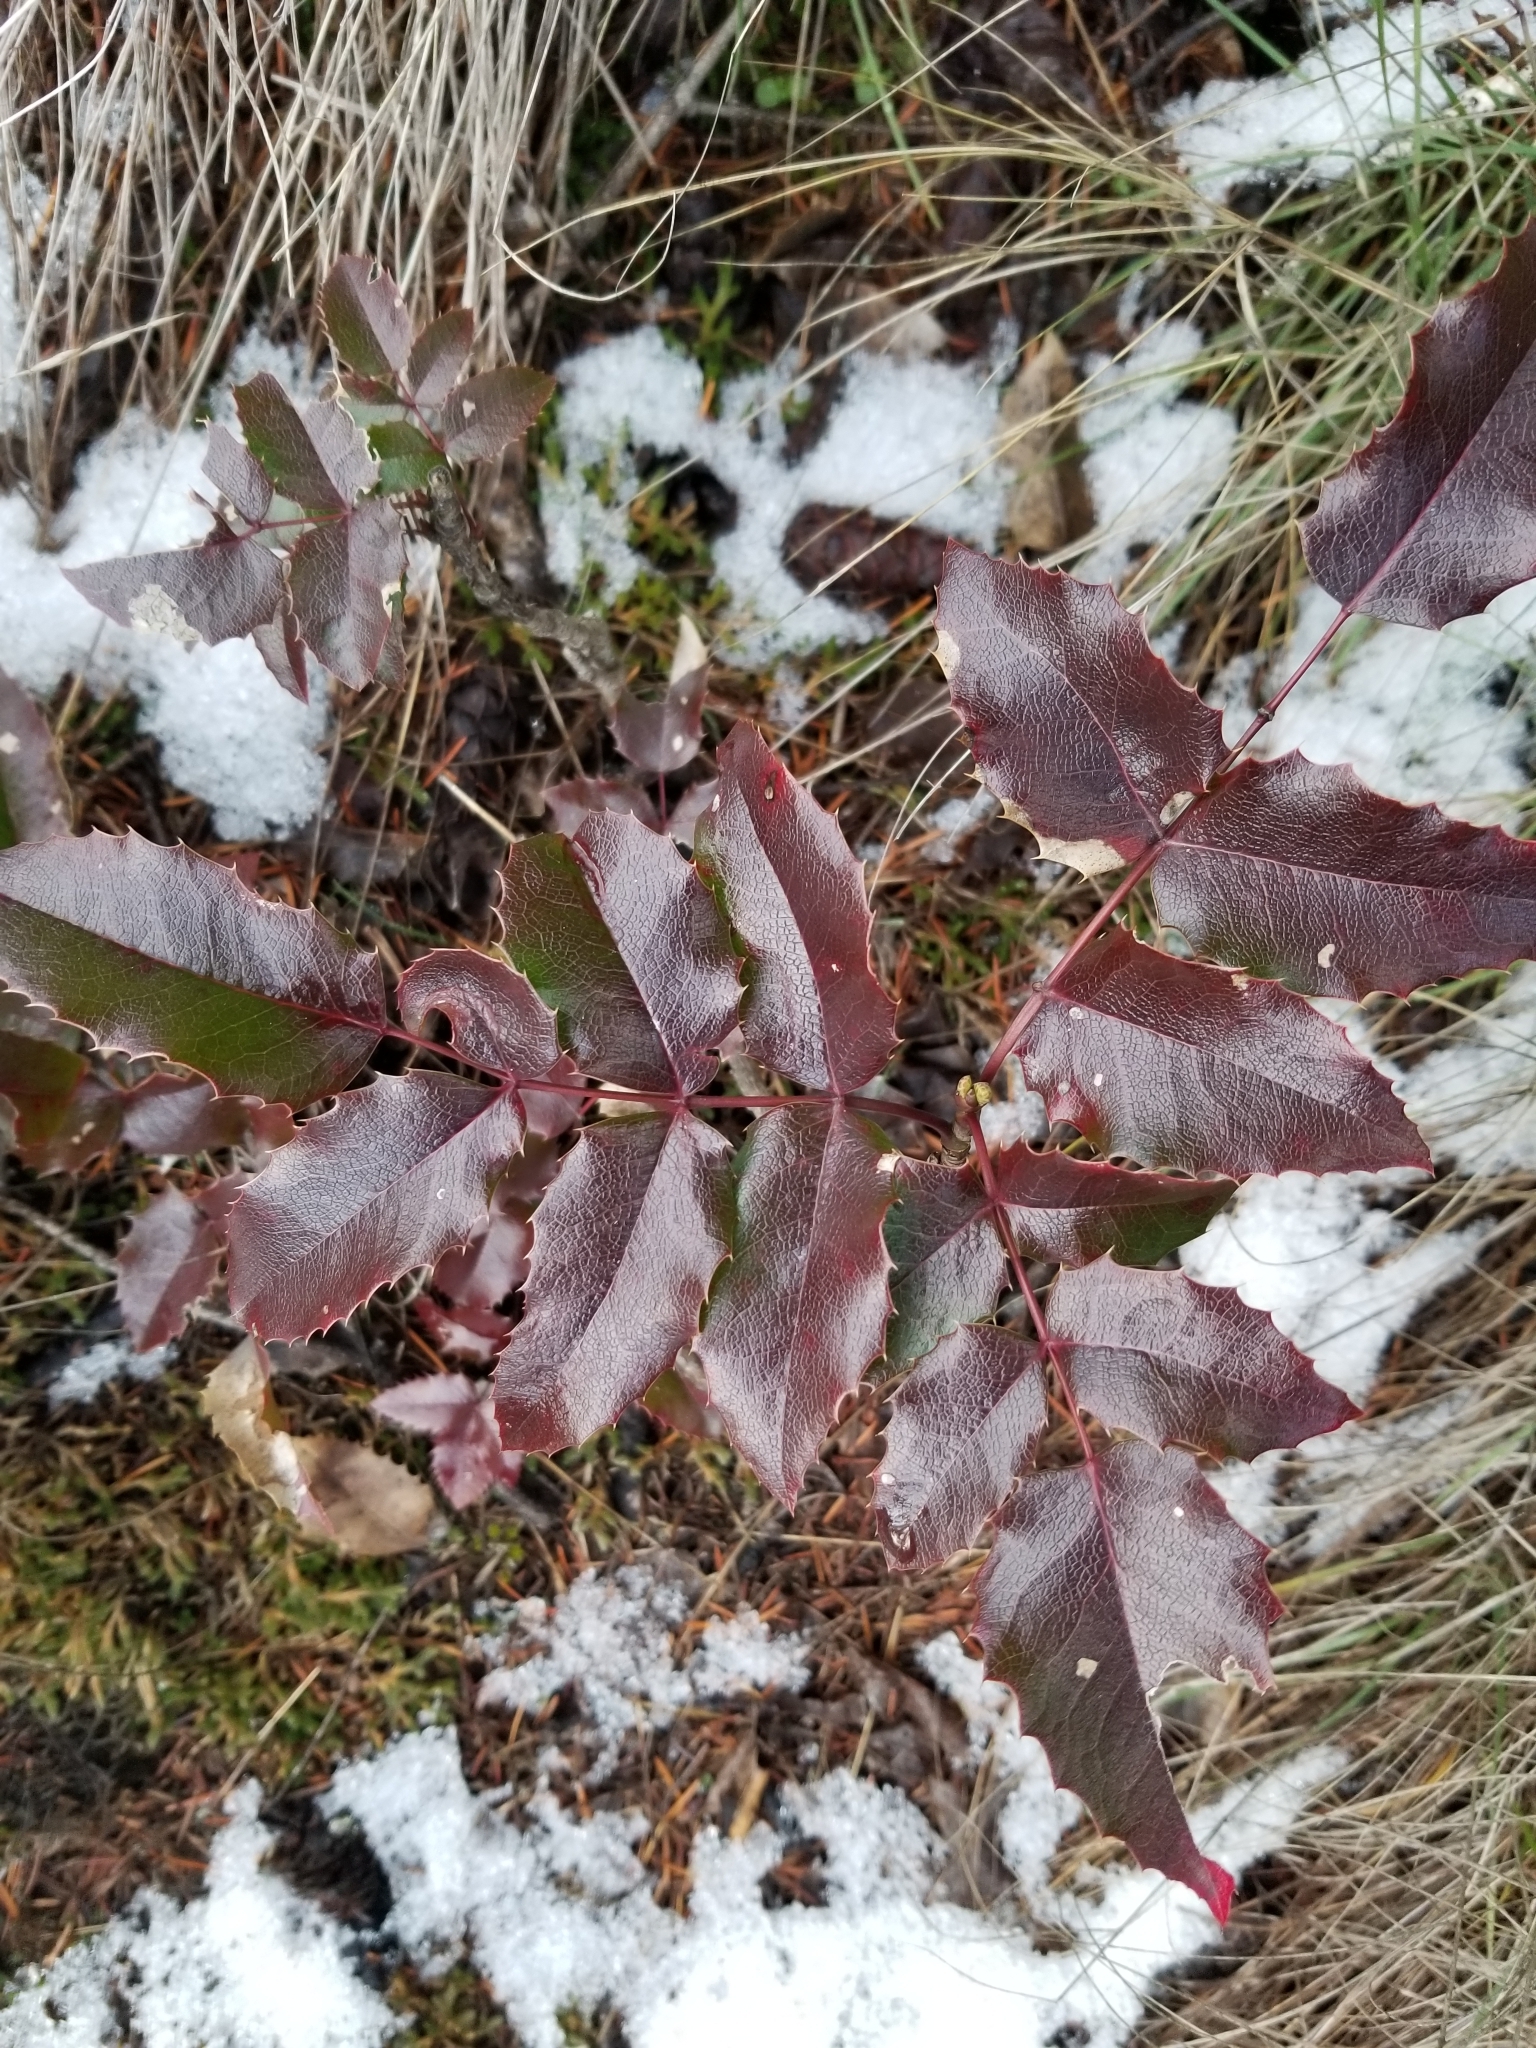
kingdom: Plantae
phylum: Tracheophyta
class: Magnoliopsida
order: Ranunculales
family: Berberidaceae
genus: Mahonia
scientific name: Mahonia aquifolium
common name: Oregon-grape
